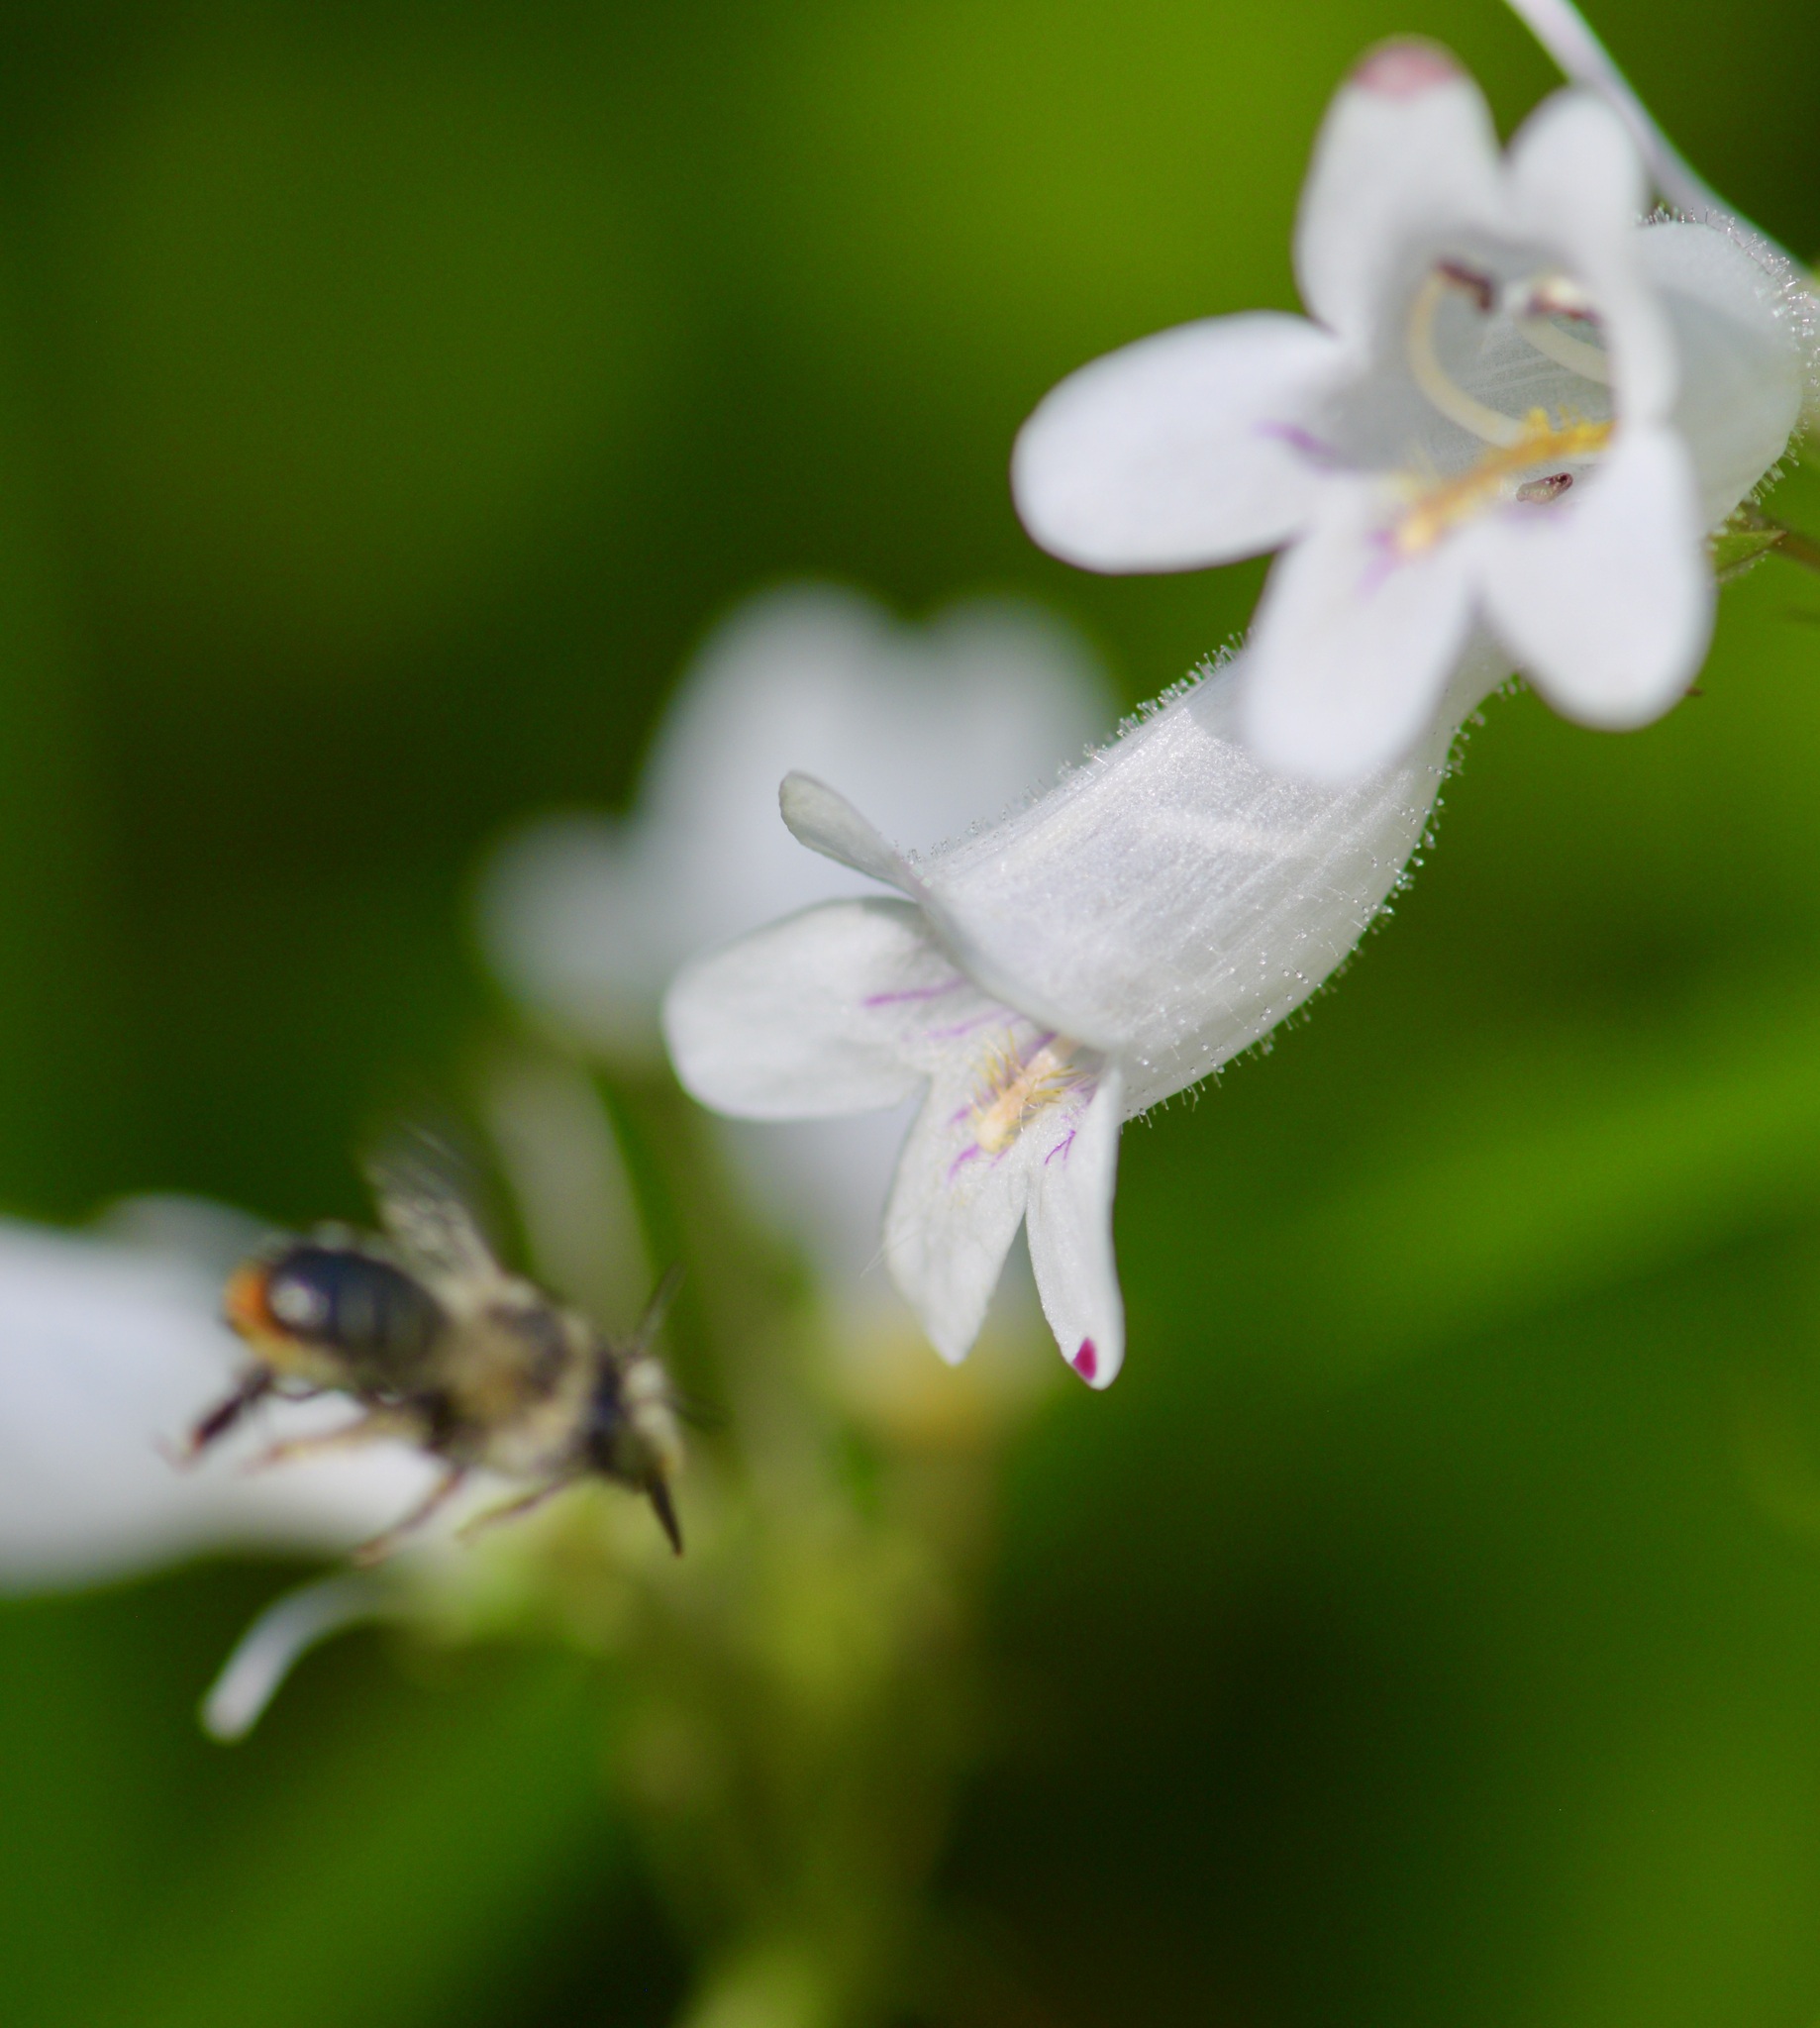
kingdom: Animalia
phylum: Arthropoda
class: Insecta
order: Hymenoptera
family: Apidae
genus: Anthophora
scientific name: Anthophora terminalis
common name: Orange-tipped wood-digger bee
